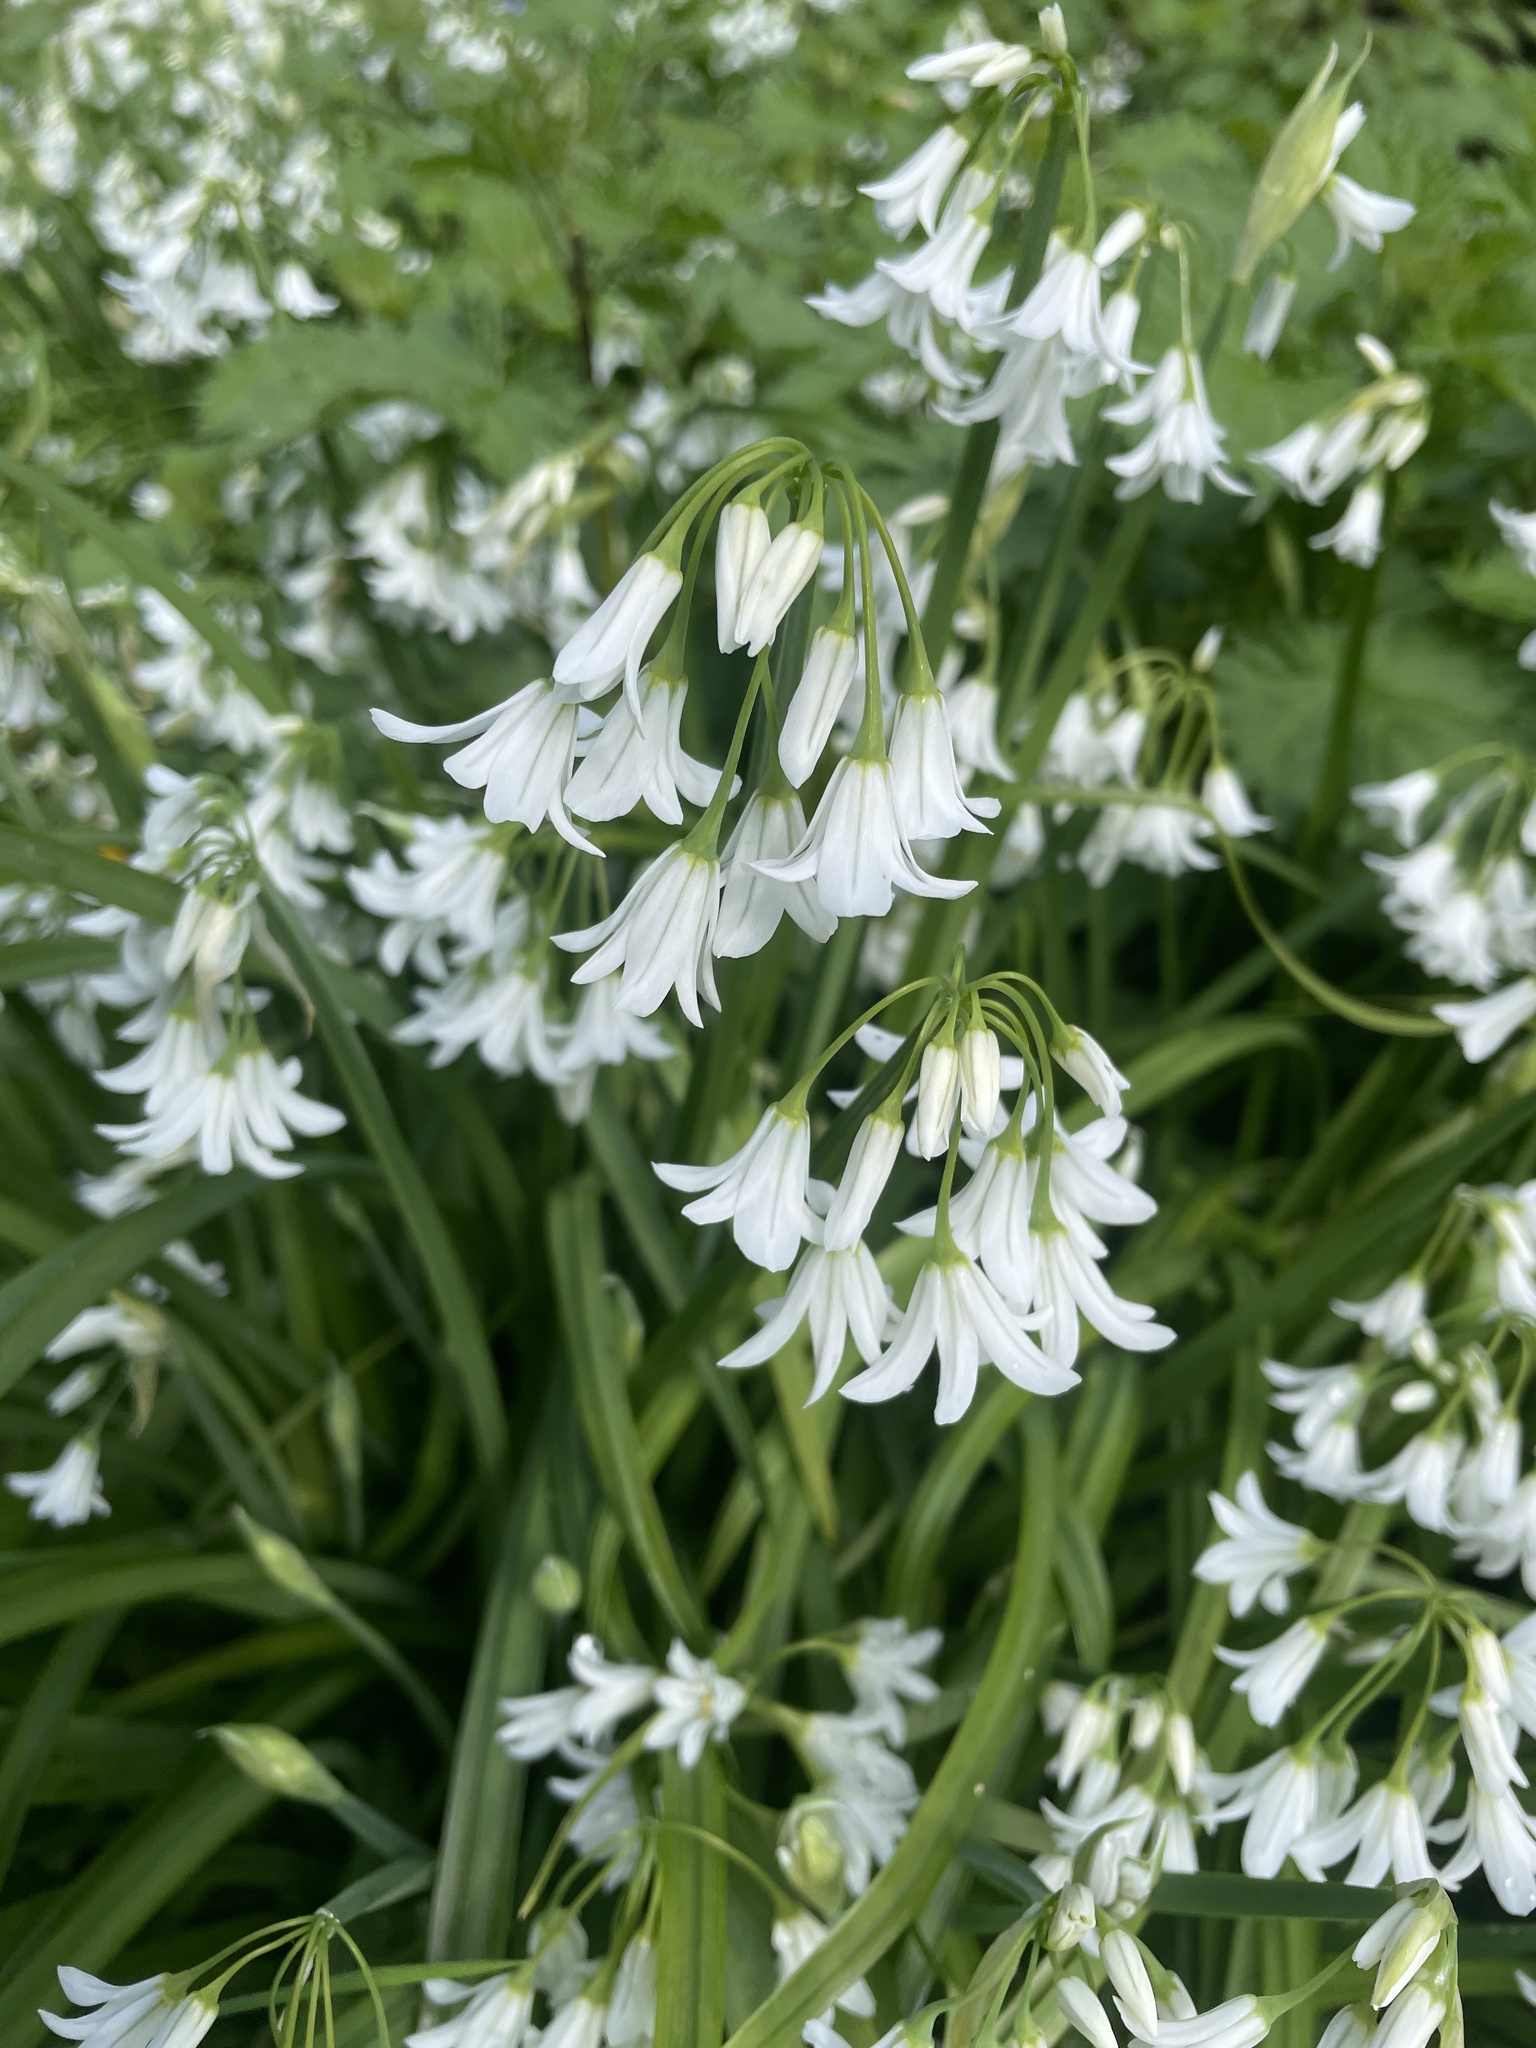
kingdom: Plantae
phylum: Tracheophyta
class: Liliopsida
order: Asparagales
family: Amaryllidaceae
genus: Allium
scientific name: Allium triquetrum
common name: Three-cornered garlic
